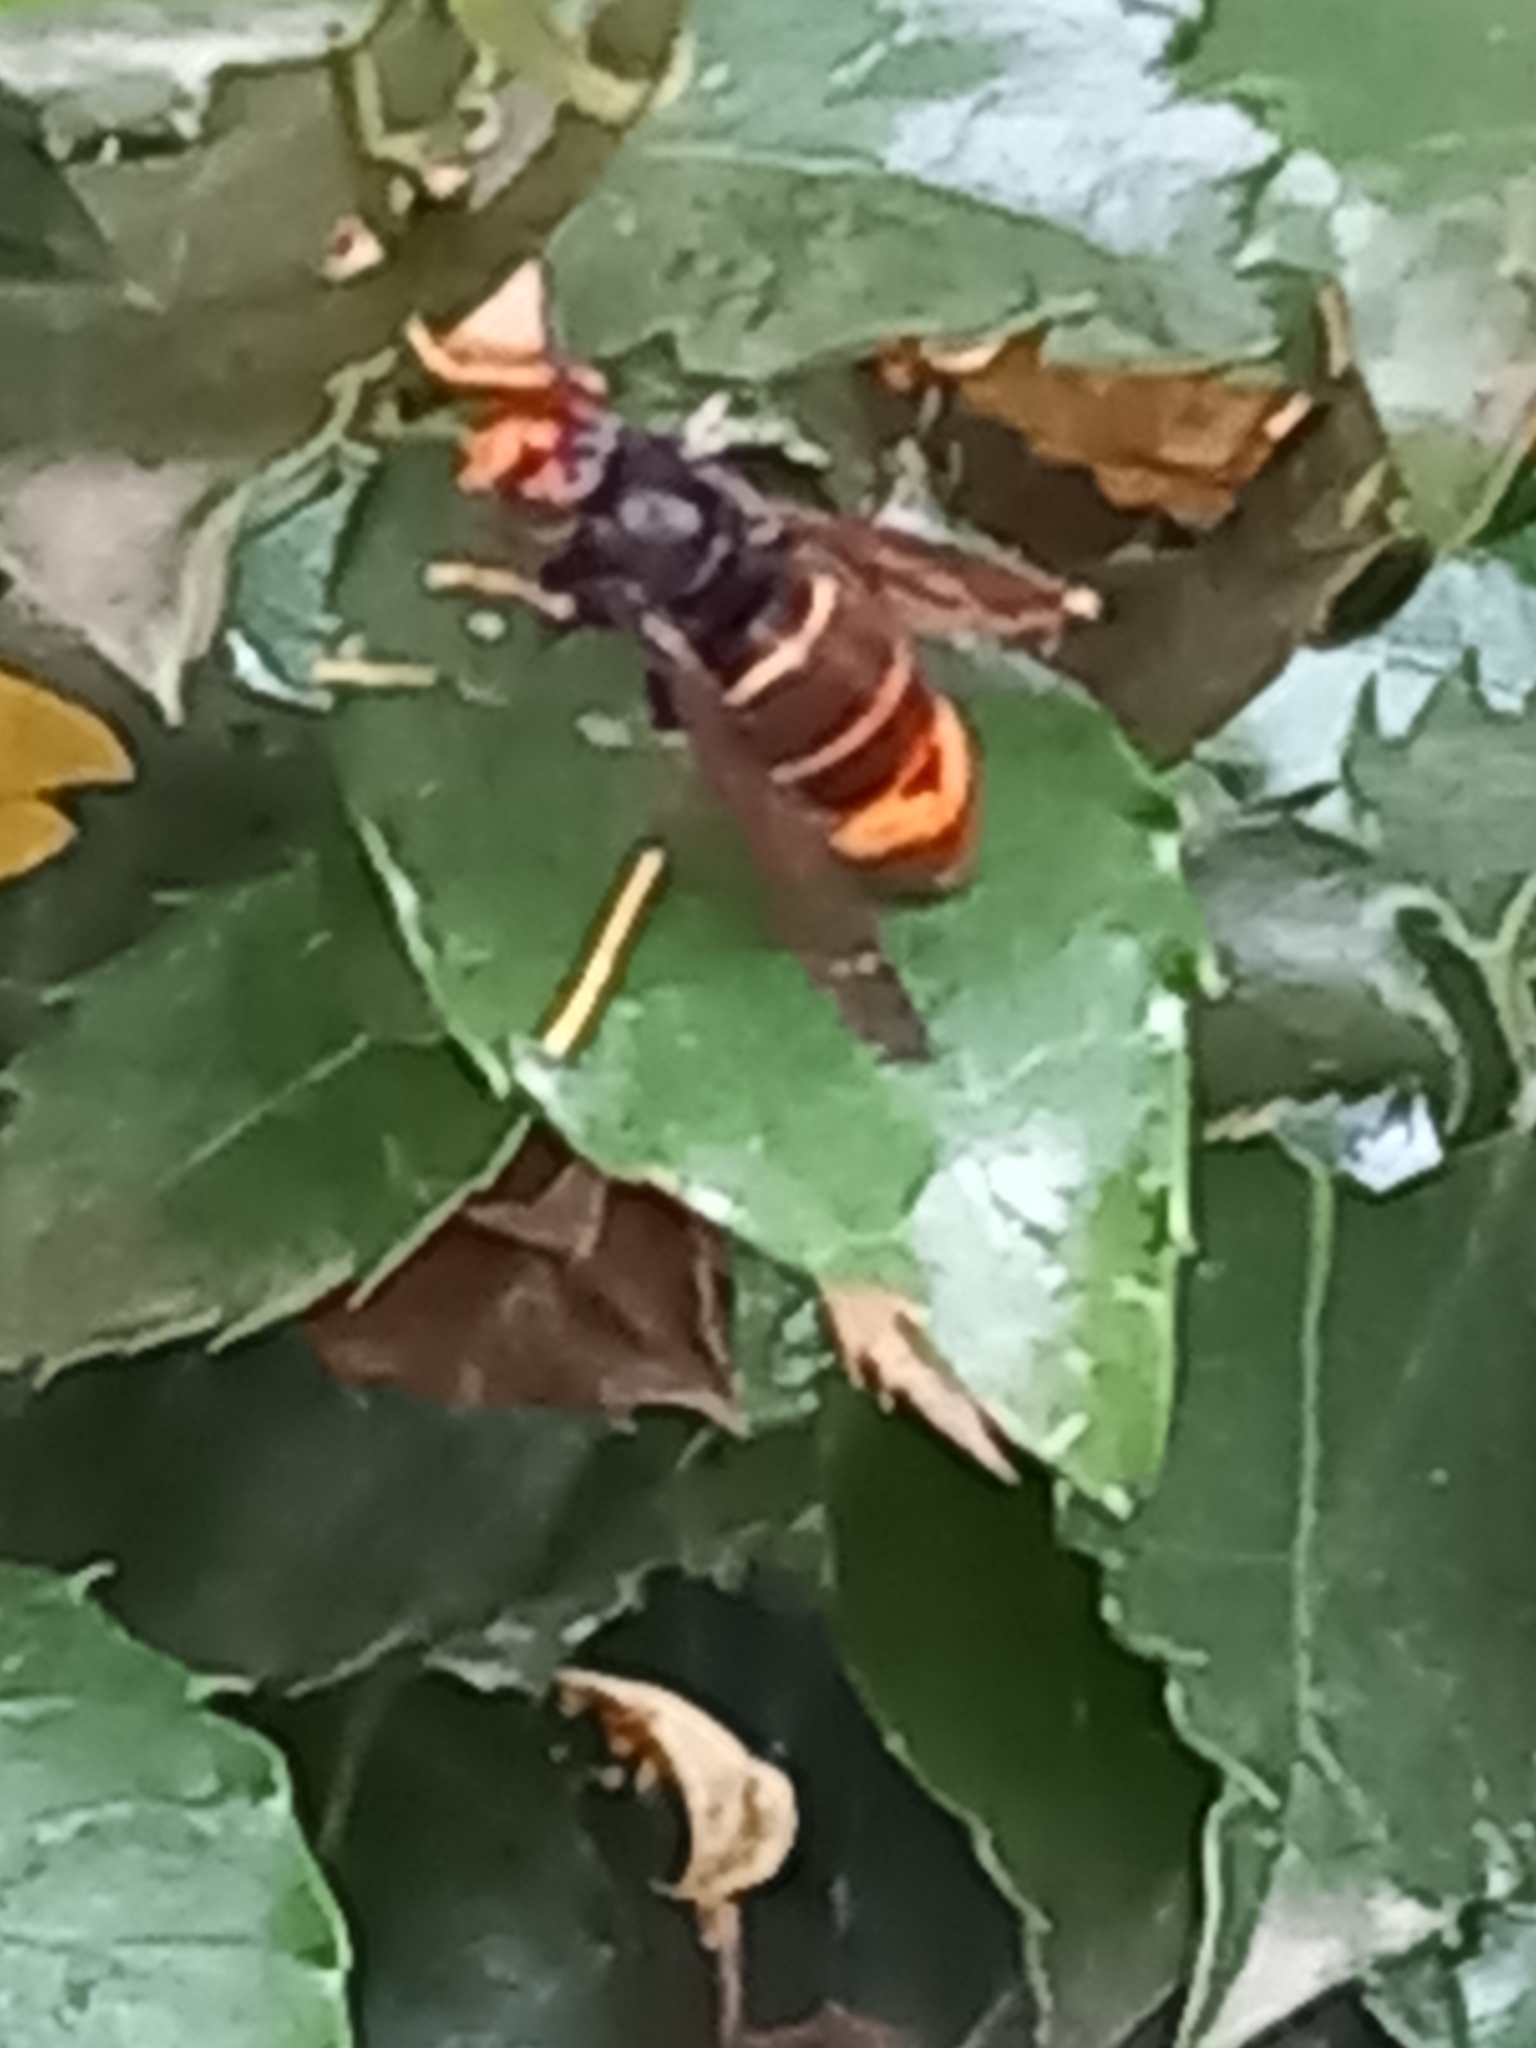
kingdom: Animalia
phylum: Arthropoda
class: Insecta
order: Hymenoptera
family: Vespidae
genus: Vespa
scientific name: Vespa velutina
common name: Asian hornet
